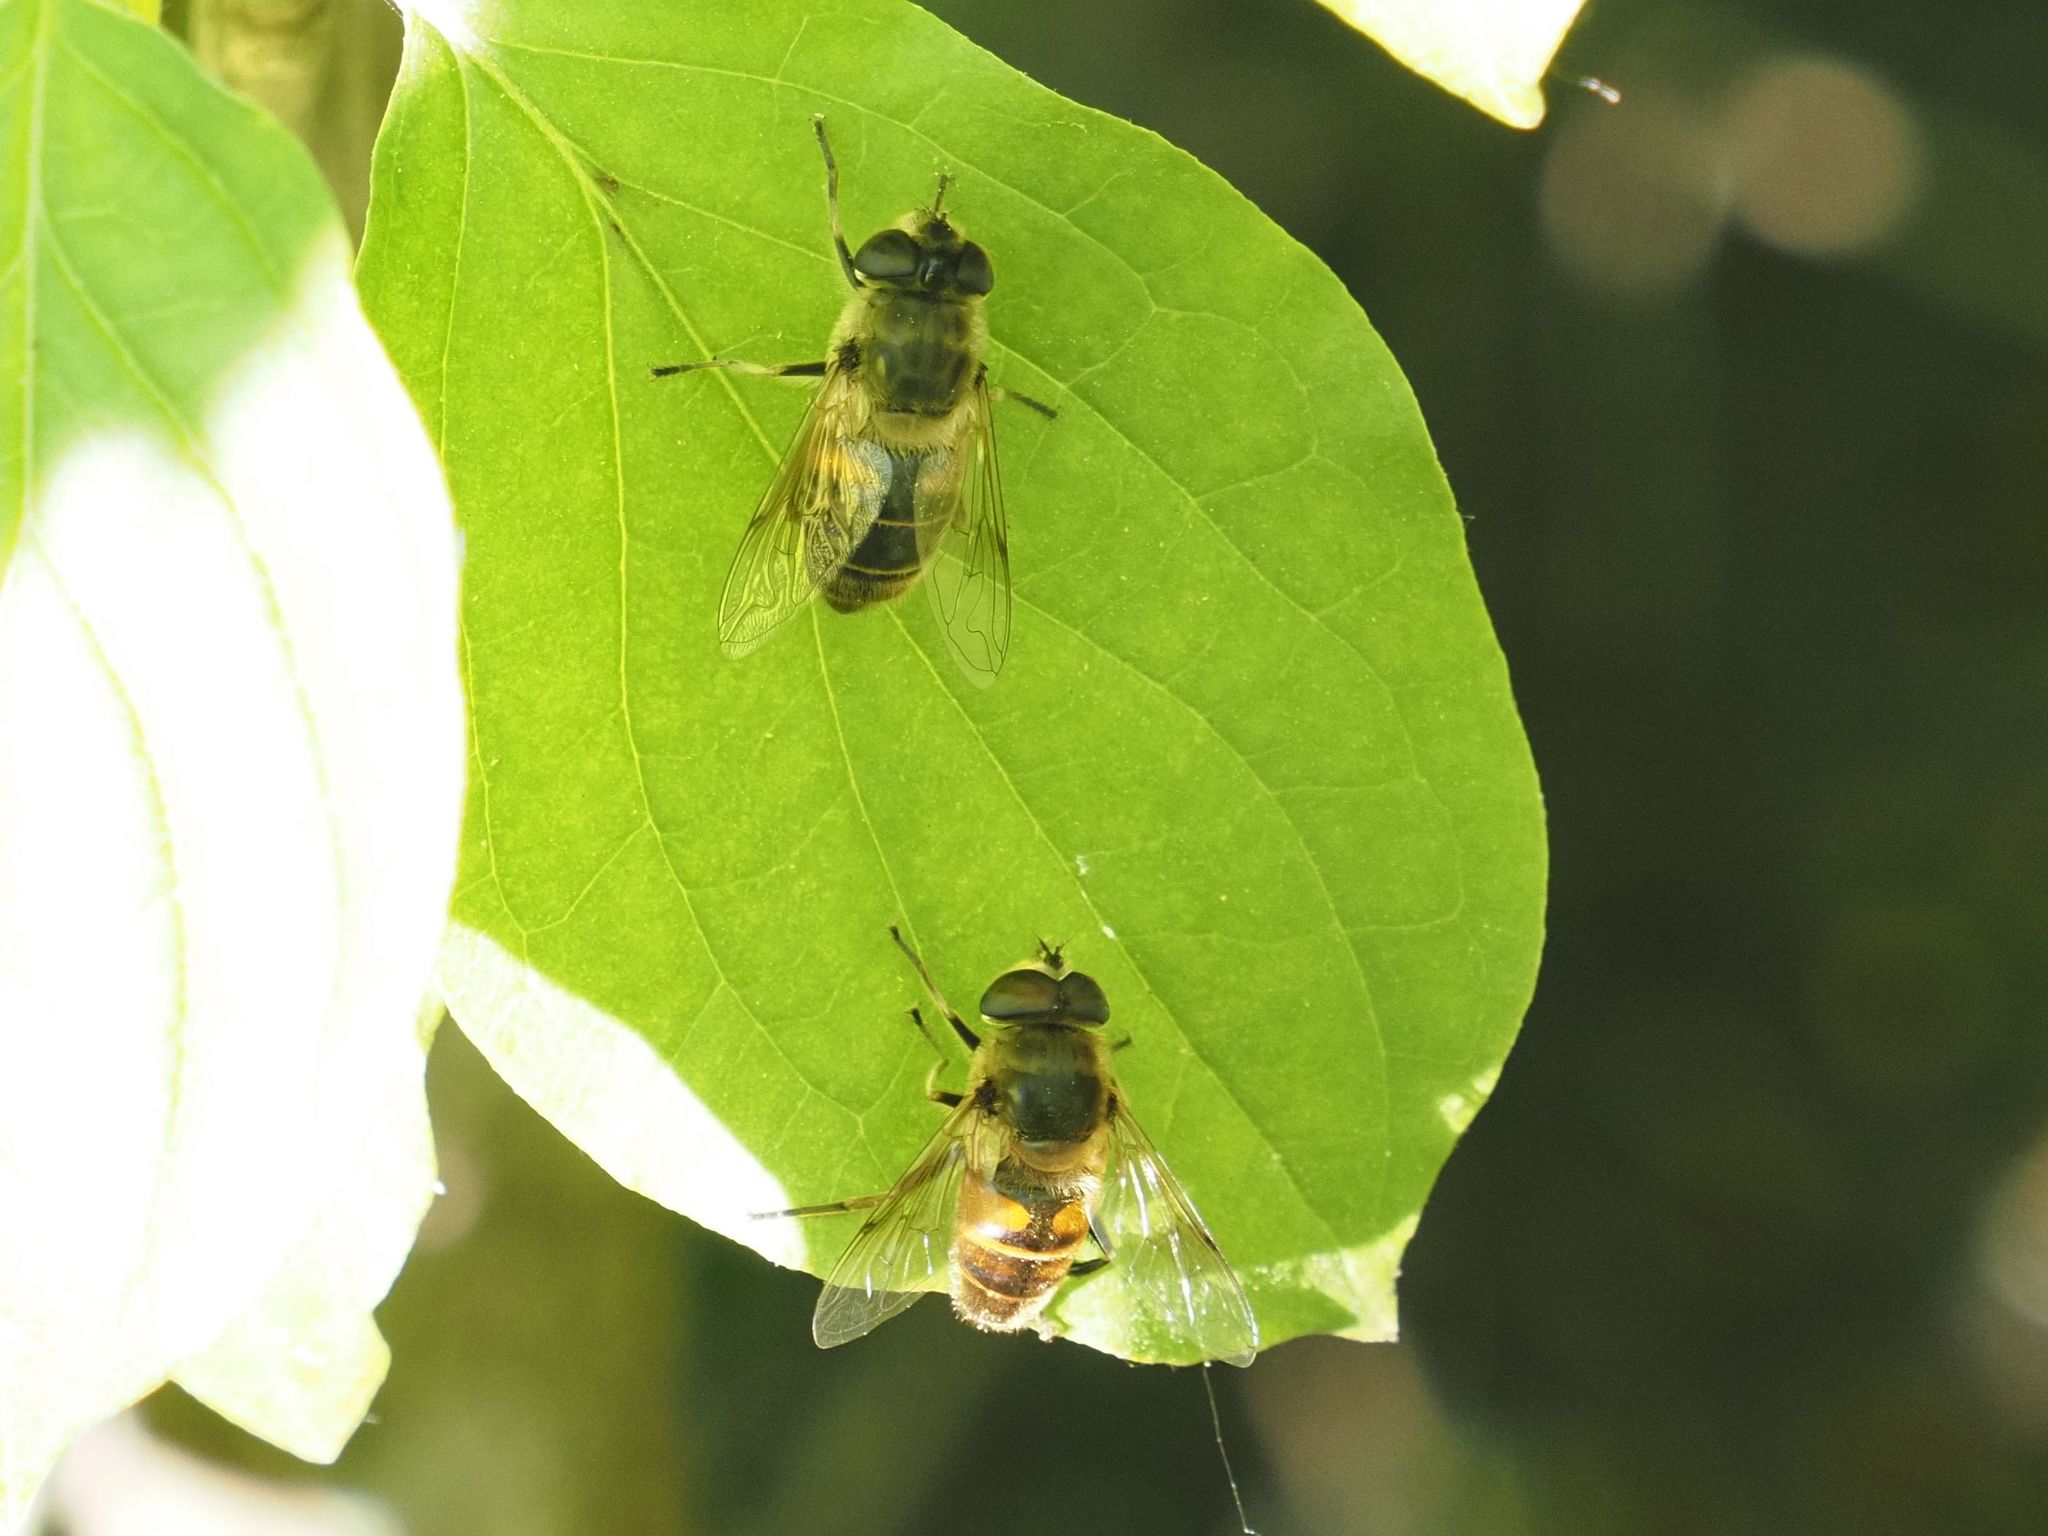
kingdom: Animalia
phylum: Arthropoda
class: Insecta
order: Diptera
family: Syrphidae
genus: Eristalis
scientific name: Eristalis tenax
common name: Drone fly
